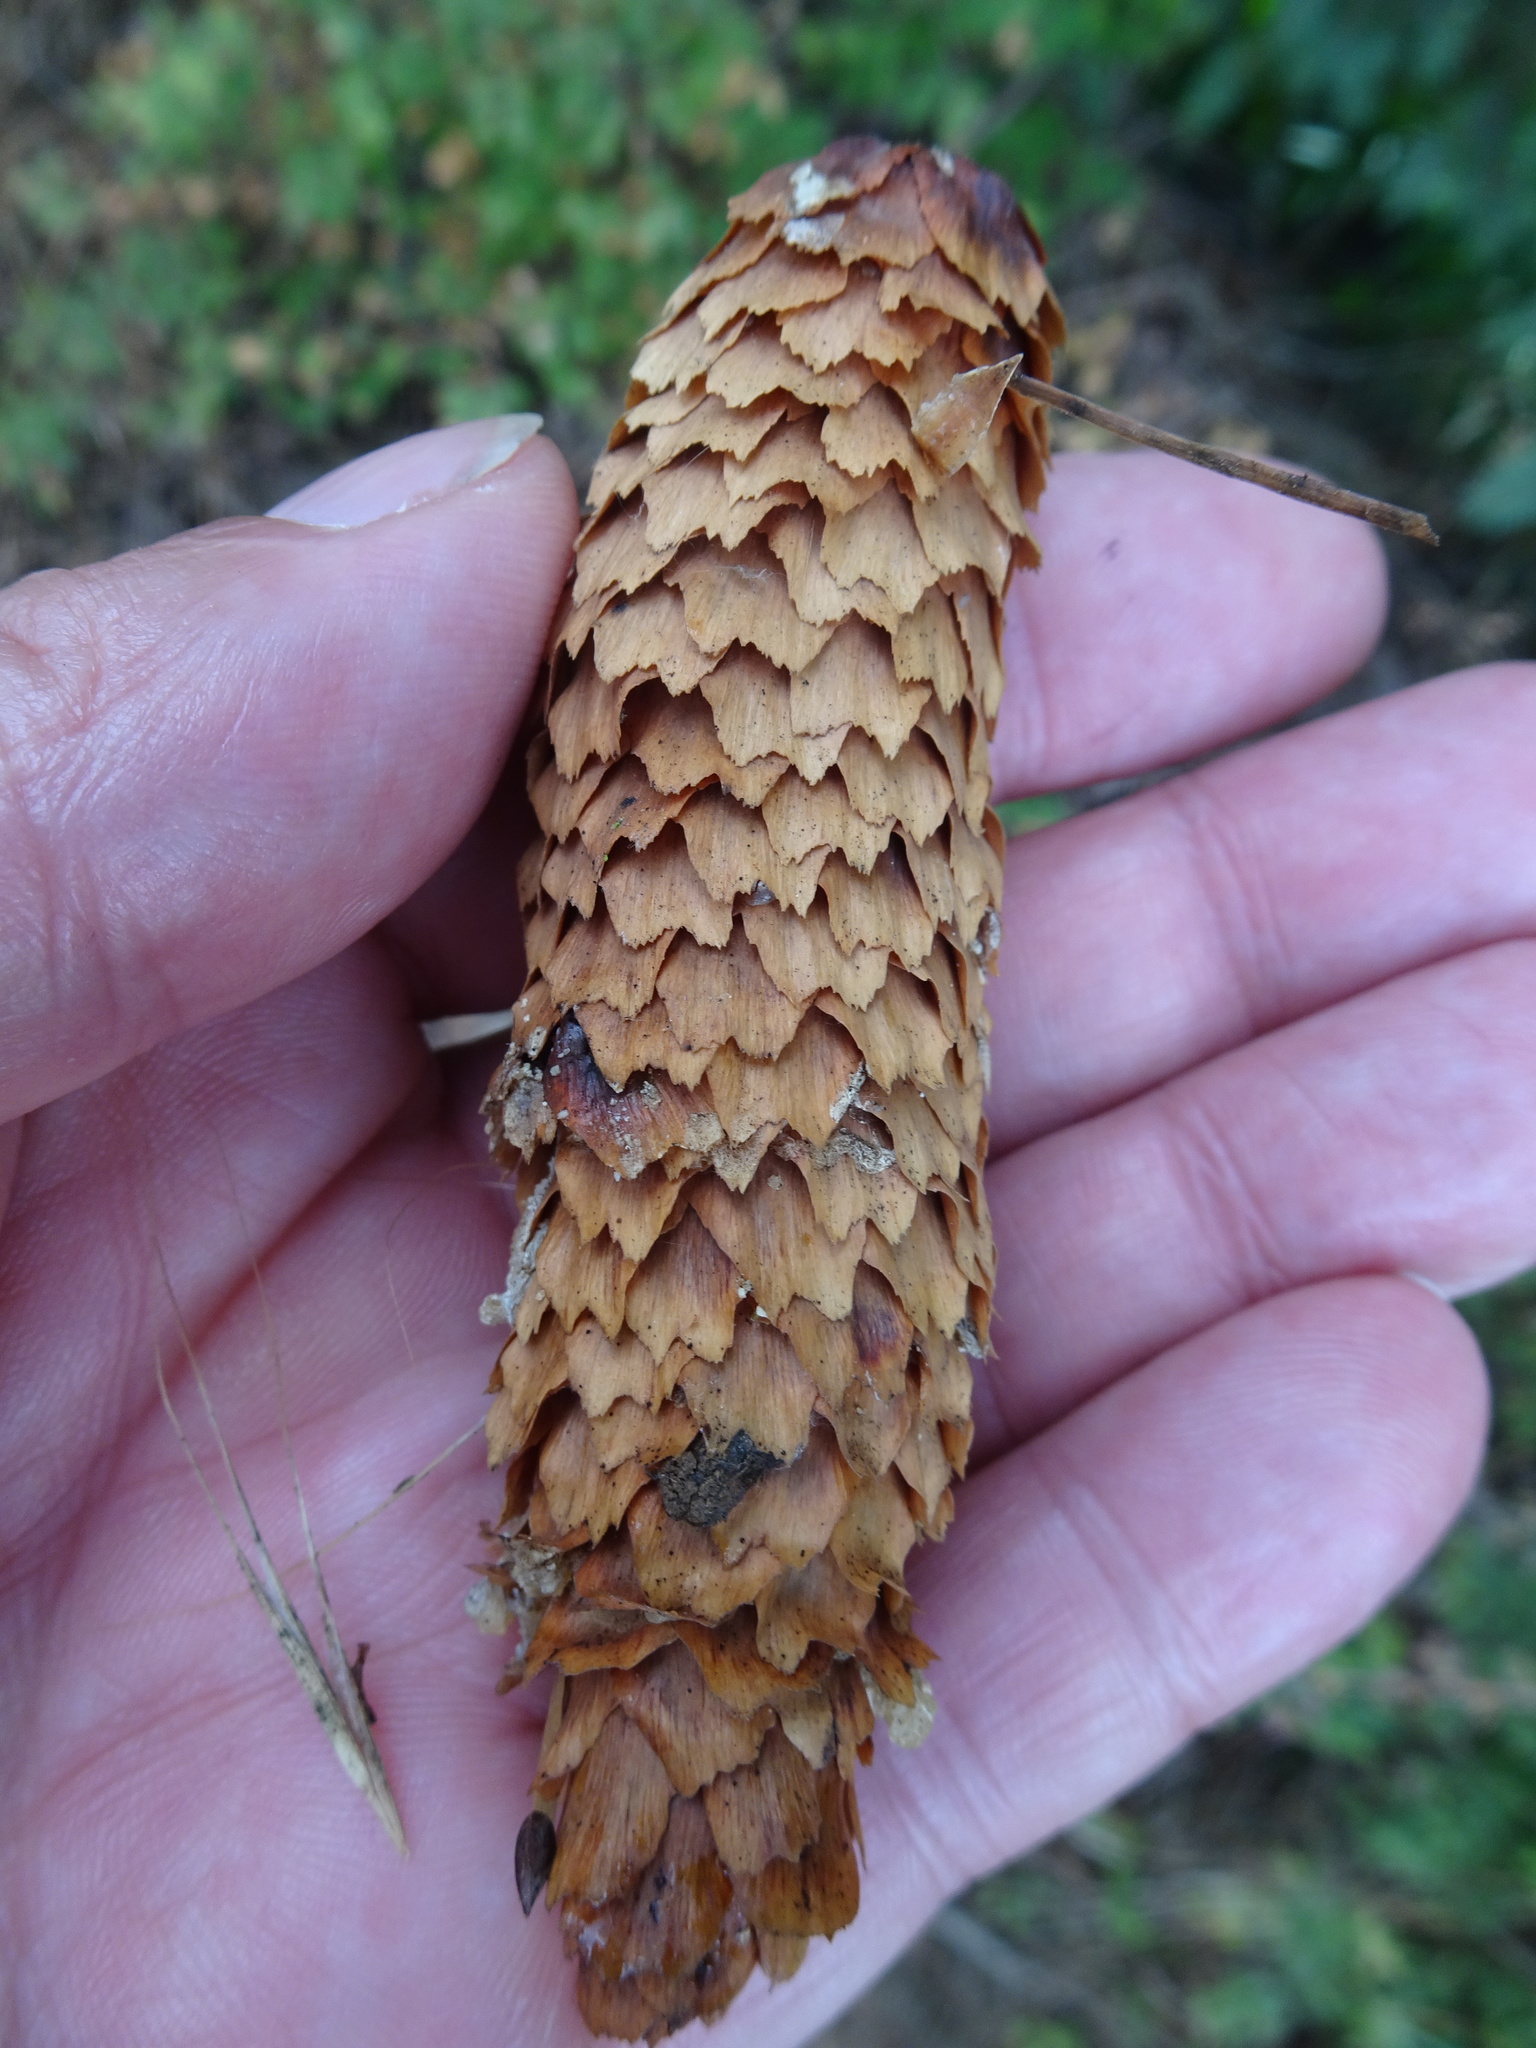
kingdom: Plantae
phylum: Tracheophyta
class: Pinopsida
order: Pinales
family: Pinaceae
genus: Picea
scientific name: Picea abies
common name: Norway spruce
